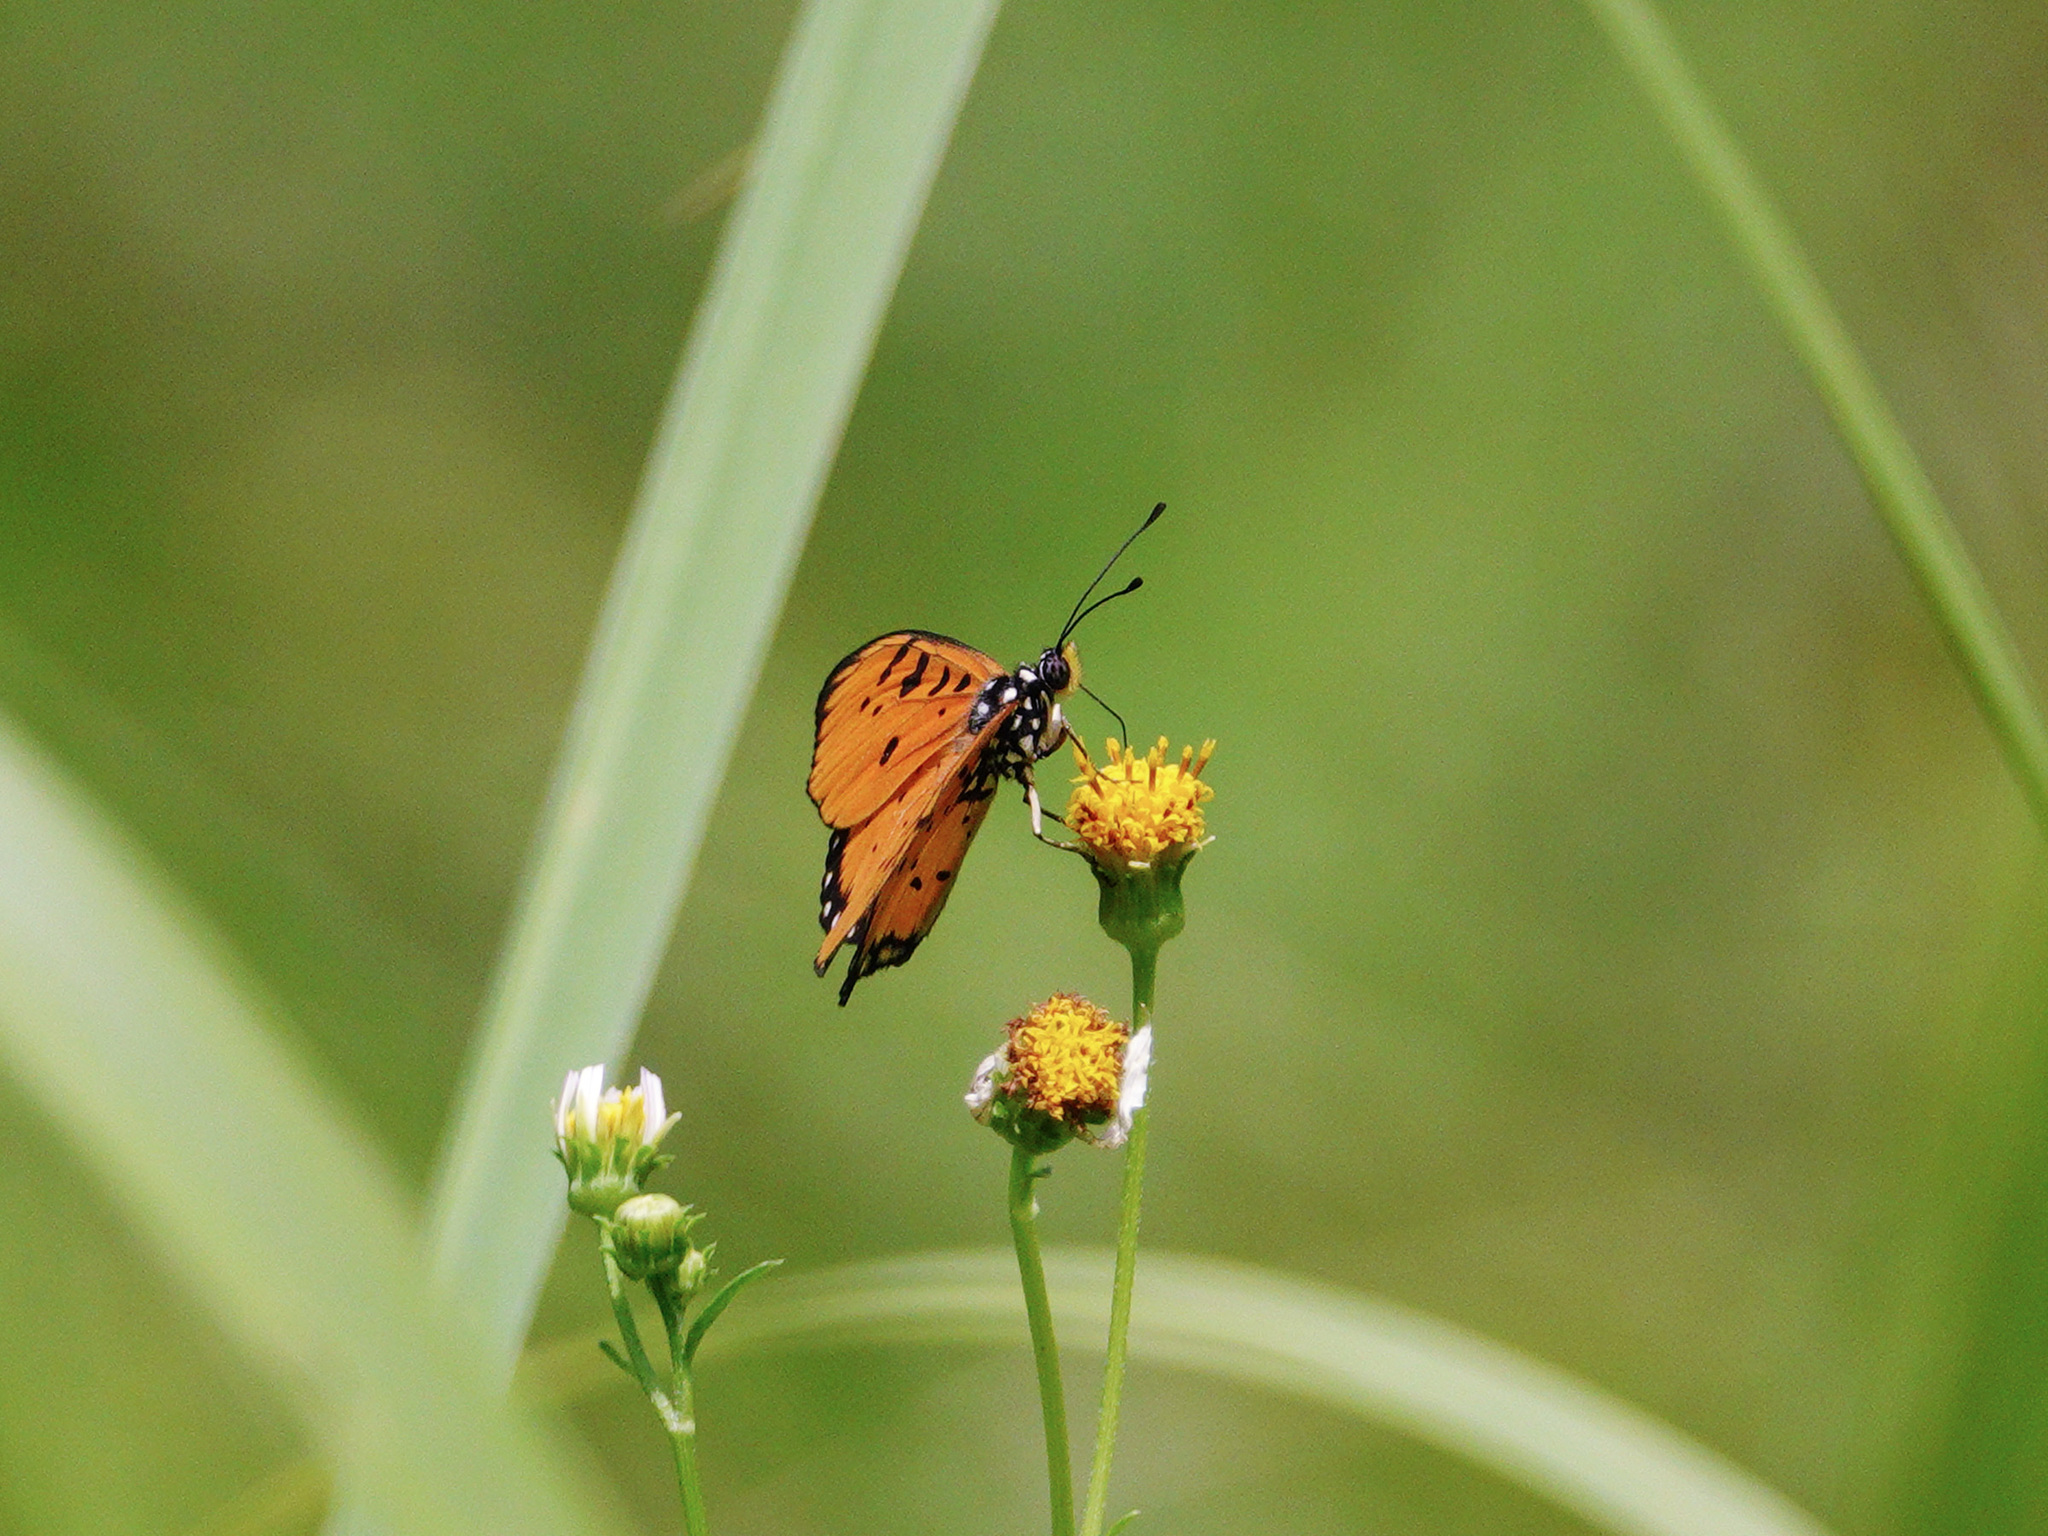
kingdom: Animalia
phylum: Arthropoda
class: Insecta
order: Lepidoptera
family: Nymphalidae
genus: Acraea
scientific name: Acraea terpsicore
